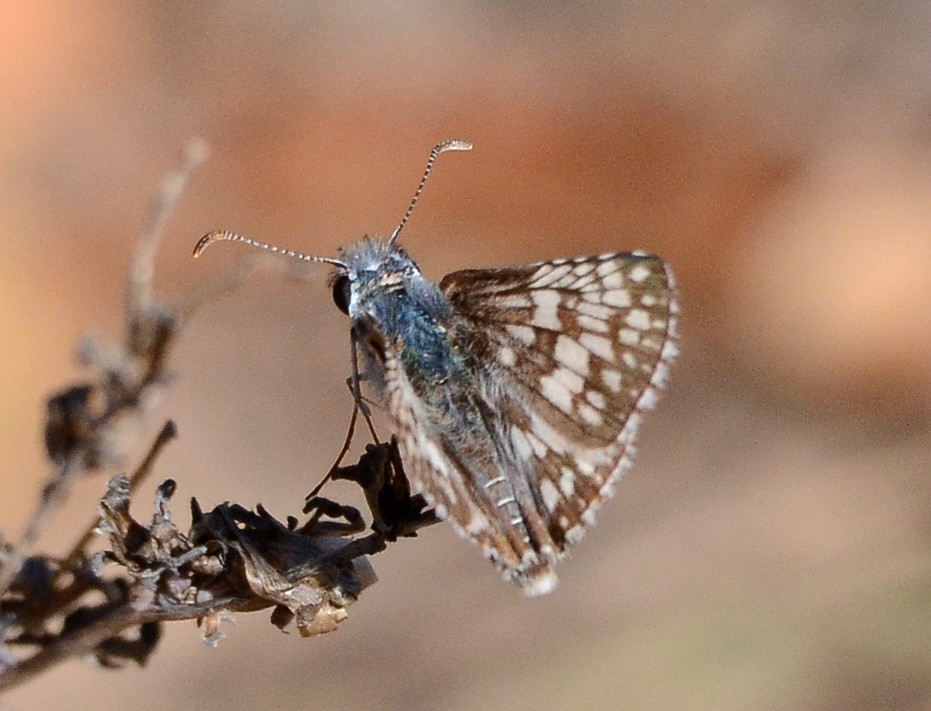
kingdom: Animalia
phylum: Arthropoda
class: Insecta
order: Lepidoptera
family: Hesperiidae
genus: Burnsius
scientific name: Burnsius communis
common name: Common checkered-skipper
